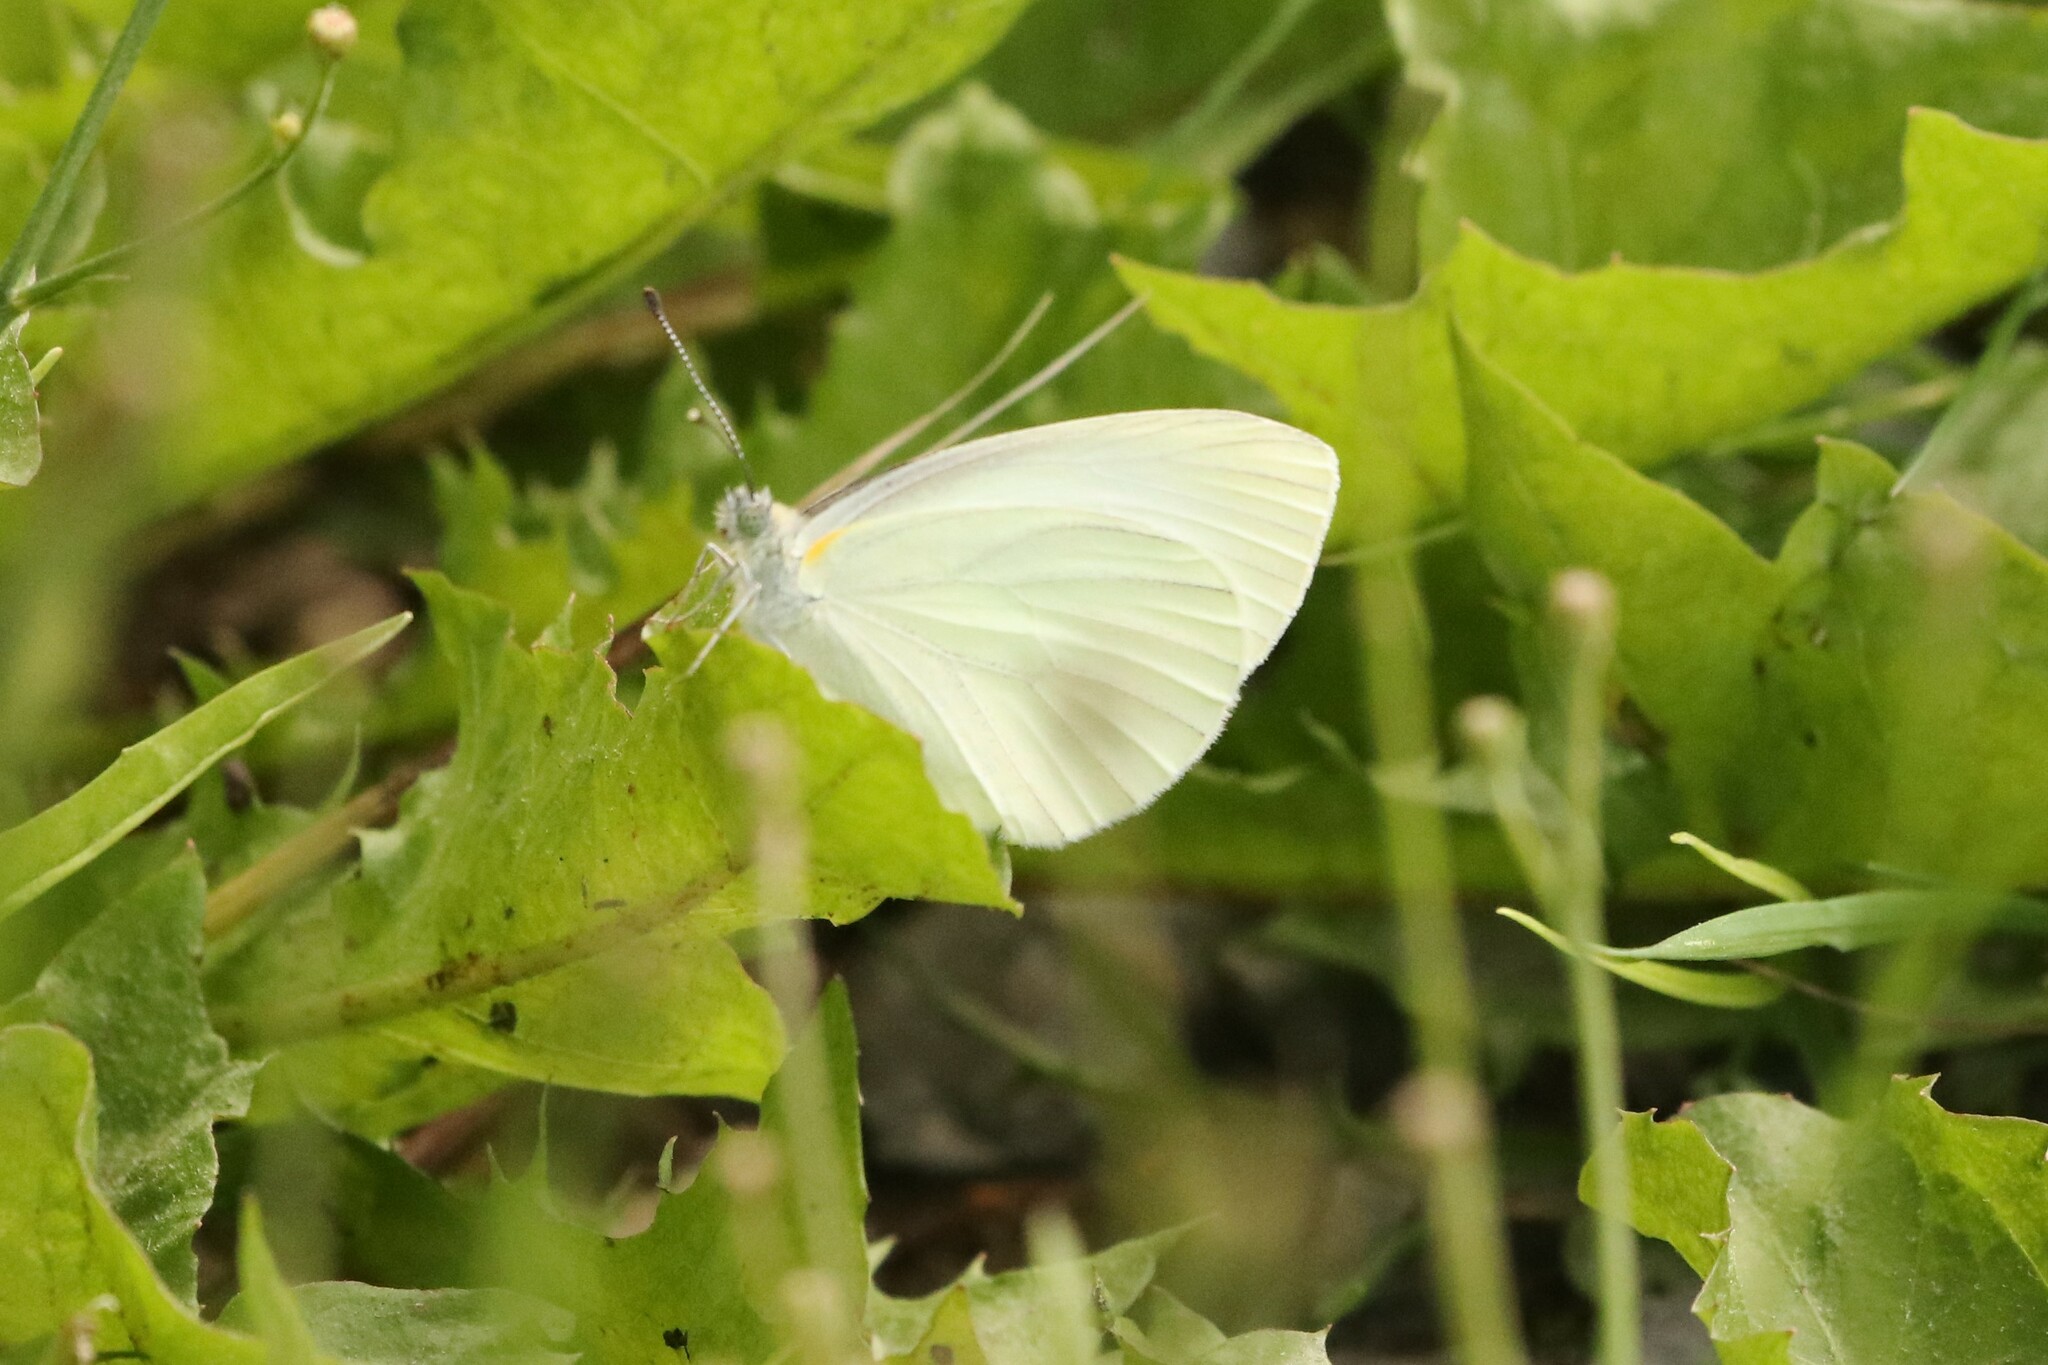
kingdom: Animalia
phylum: Arthropoda
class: Insecta
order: Lepidoptera
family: Pieridae
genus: Pieris
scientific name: Pieris oleracea
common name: Mustard white
